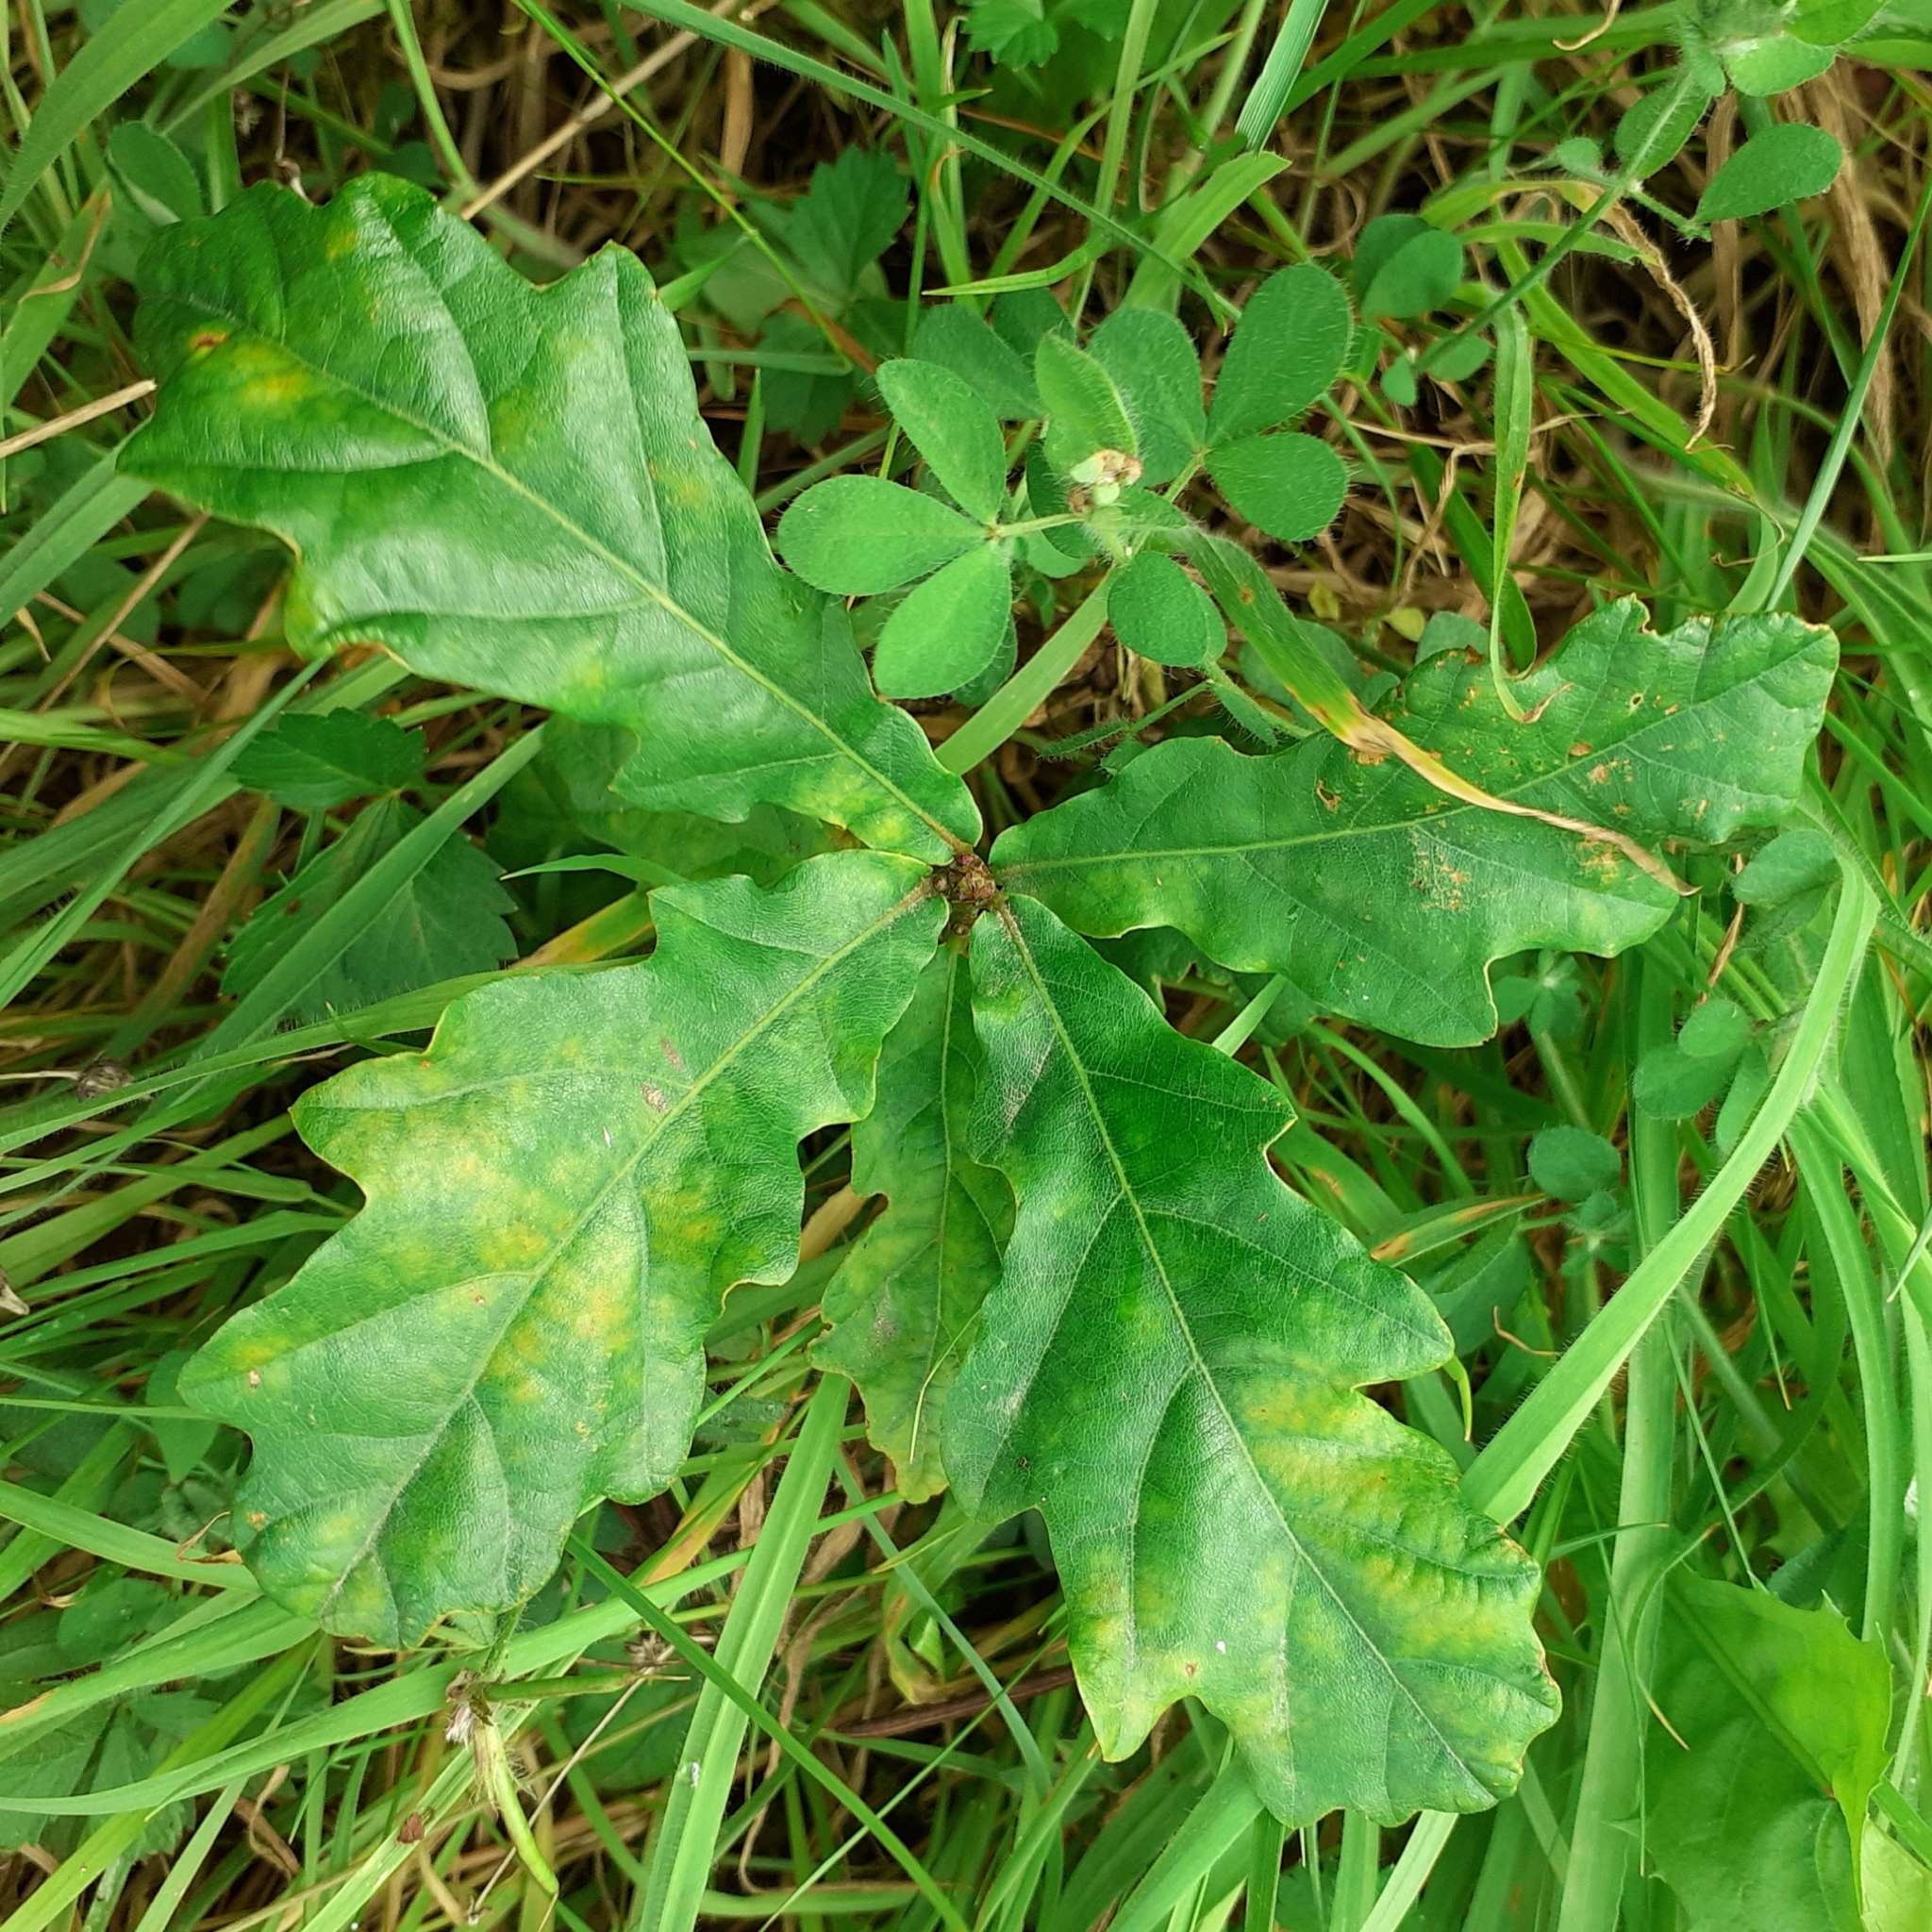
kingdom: Plantae
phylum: Tracheophyta
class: Magnoliopsida
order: Fagales
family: Fagaceae
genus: Quercus
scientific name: Quercus robur
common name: Pedunculate oak
